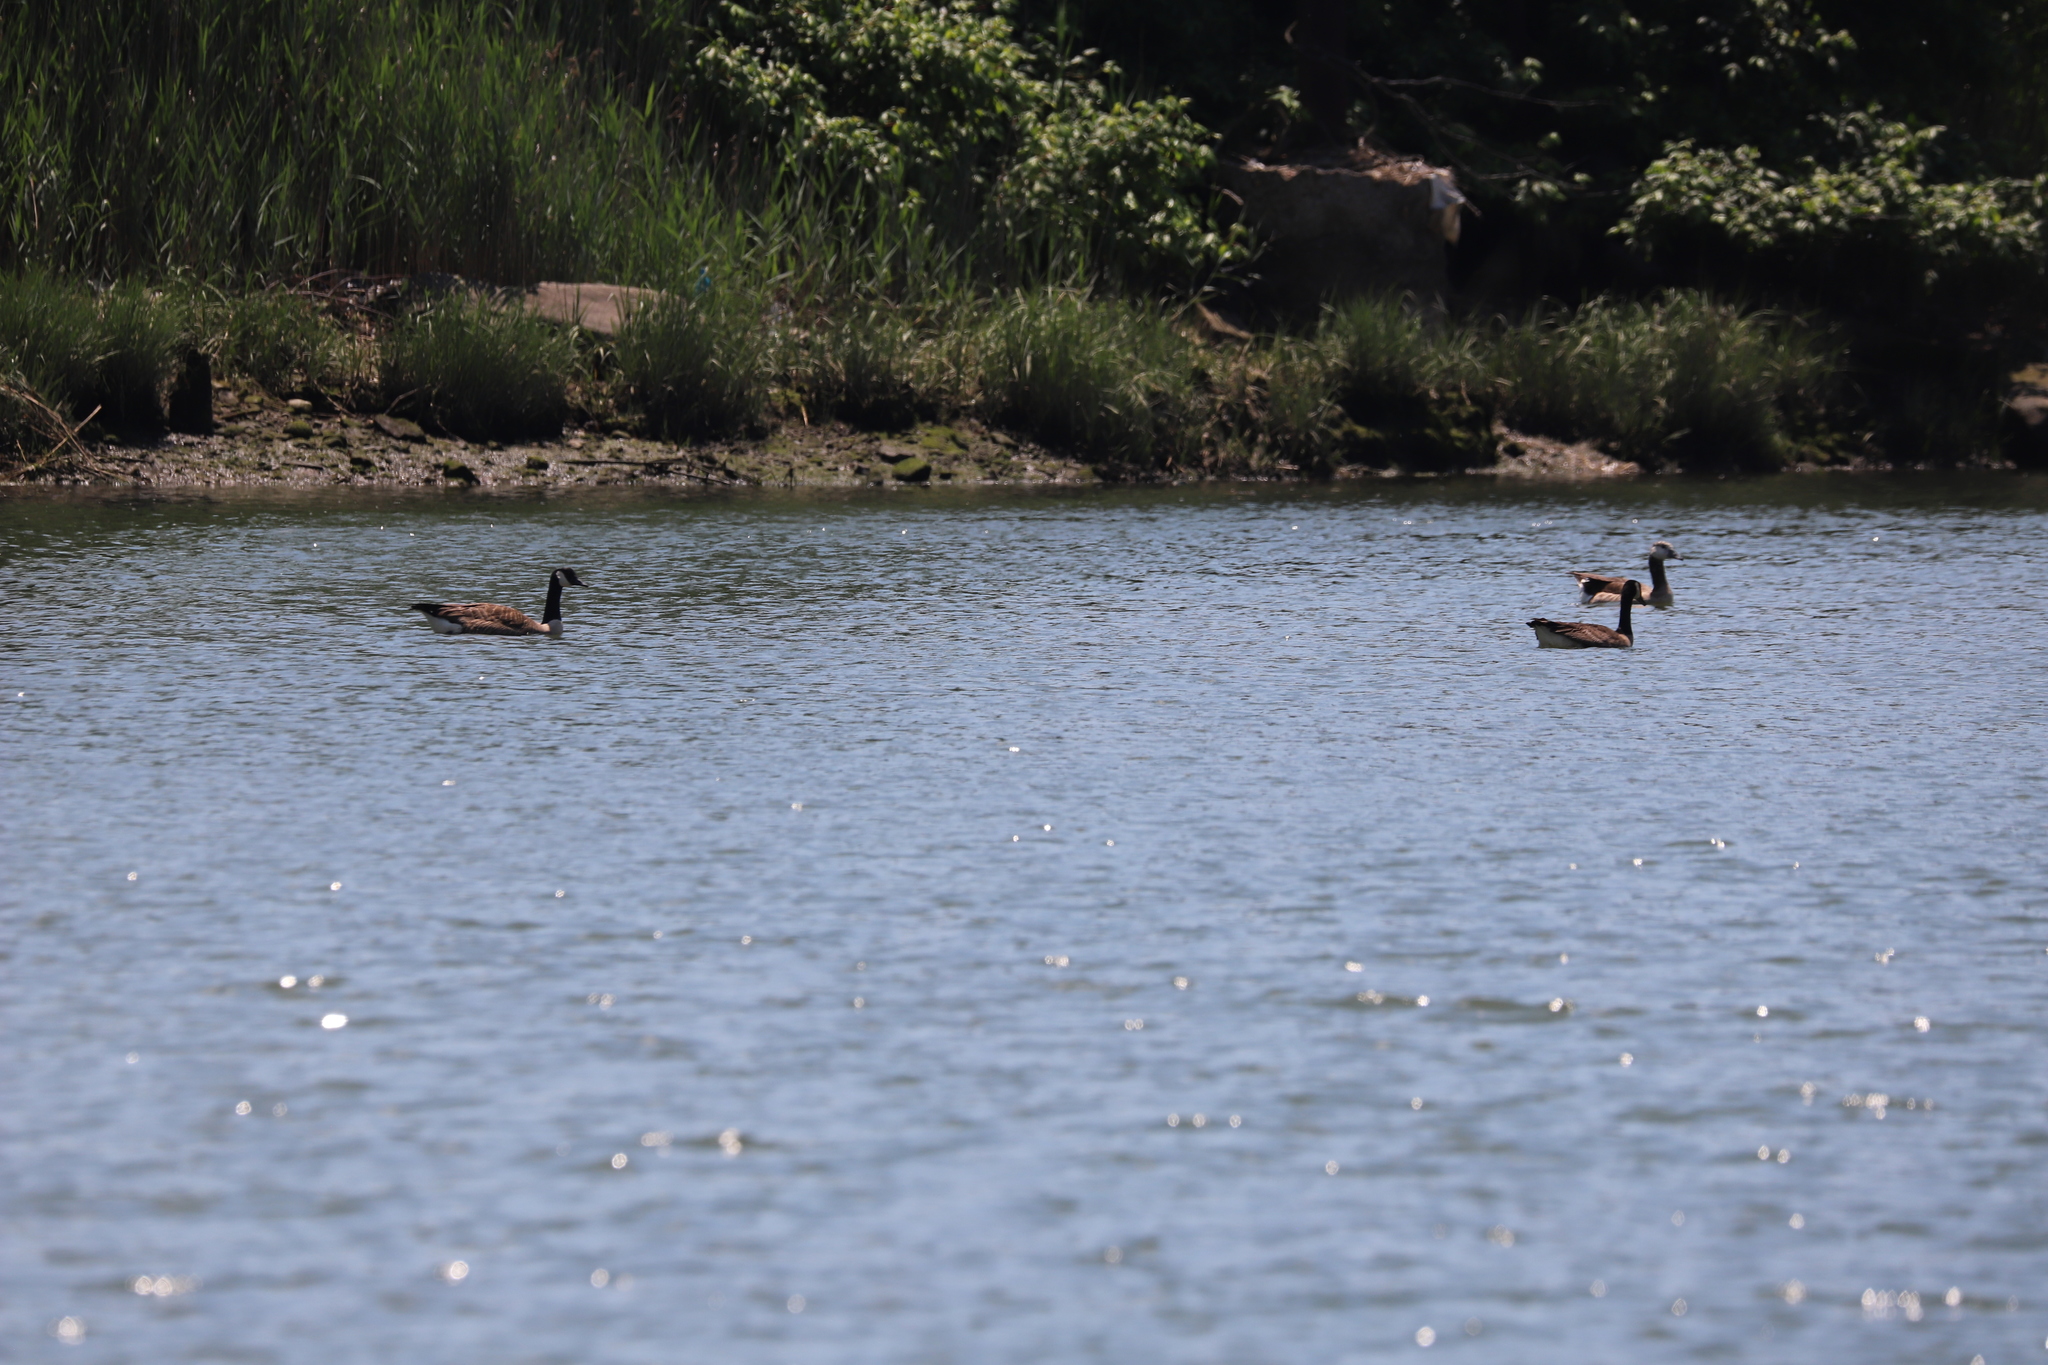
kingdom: Animalia
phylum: Chordata
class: Aves
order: Anseriformes
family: Anatidae
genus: Branta
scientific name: Branta canadensis
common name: Canada goose
